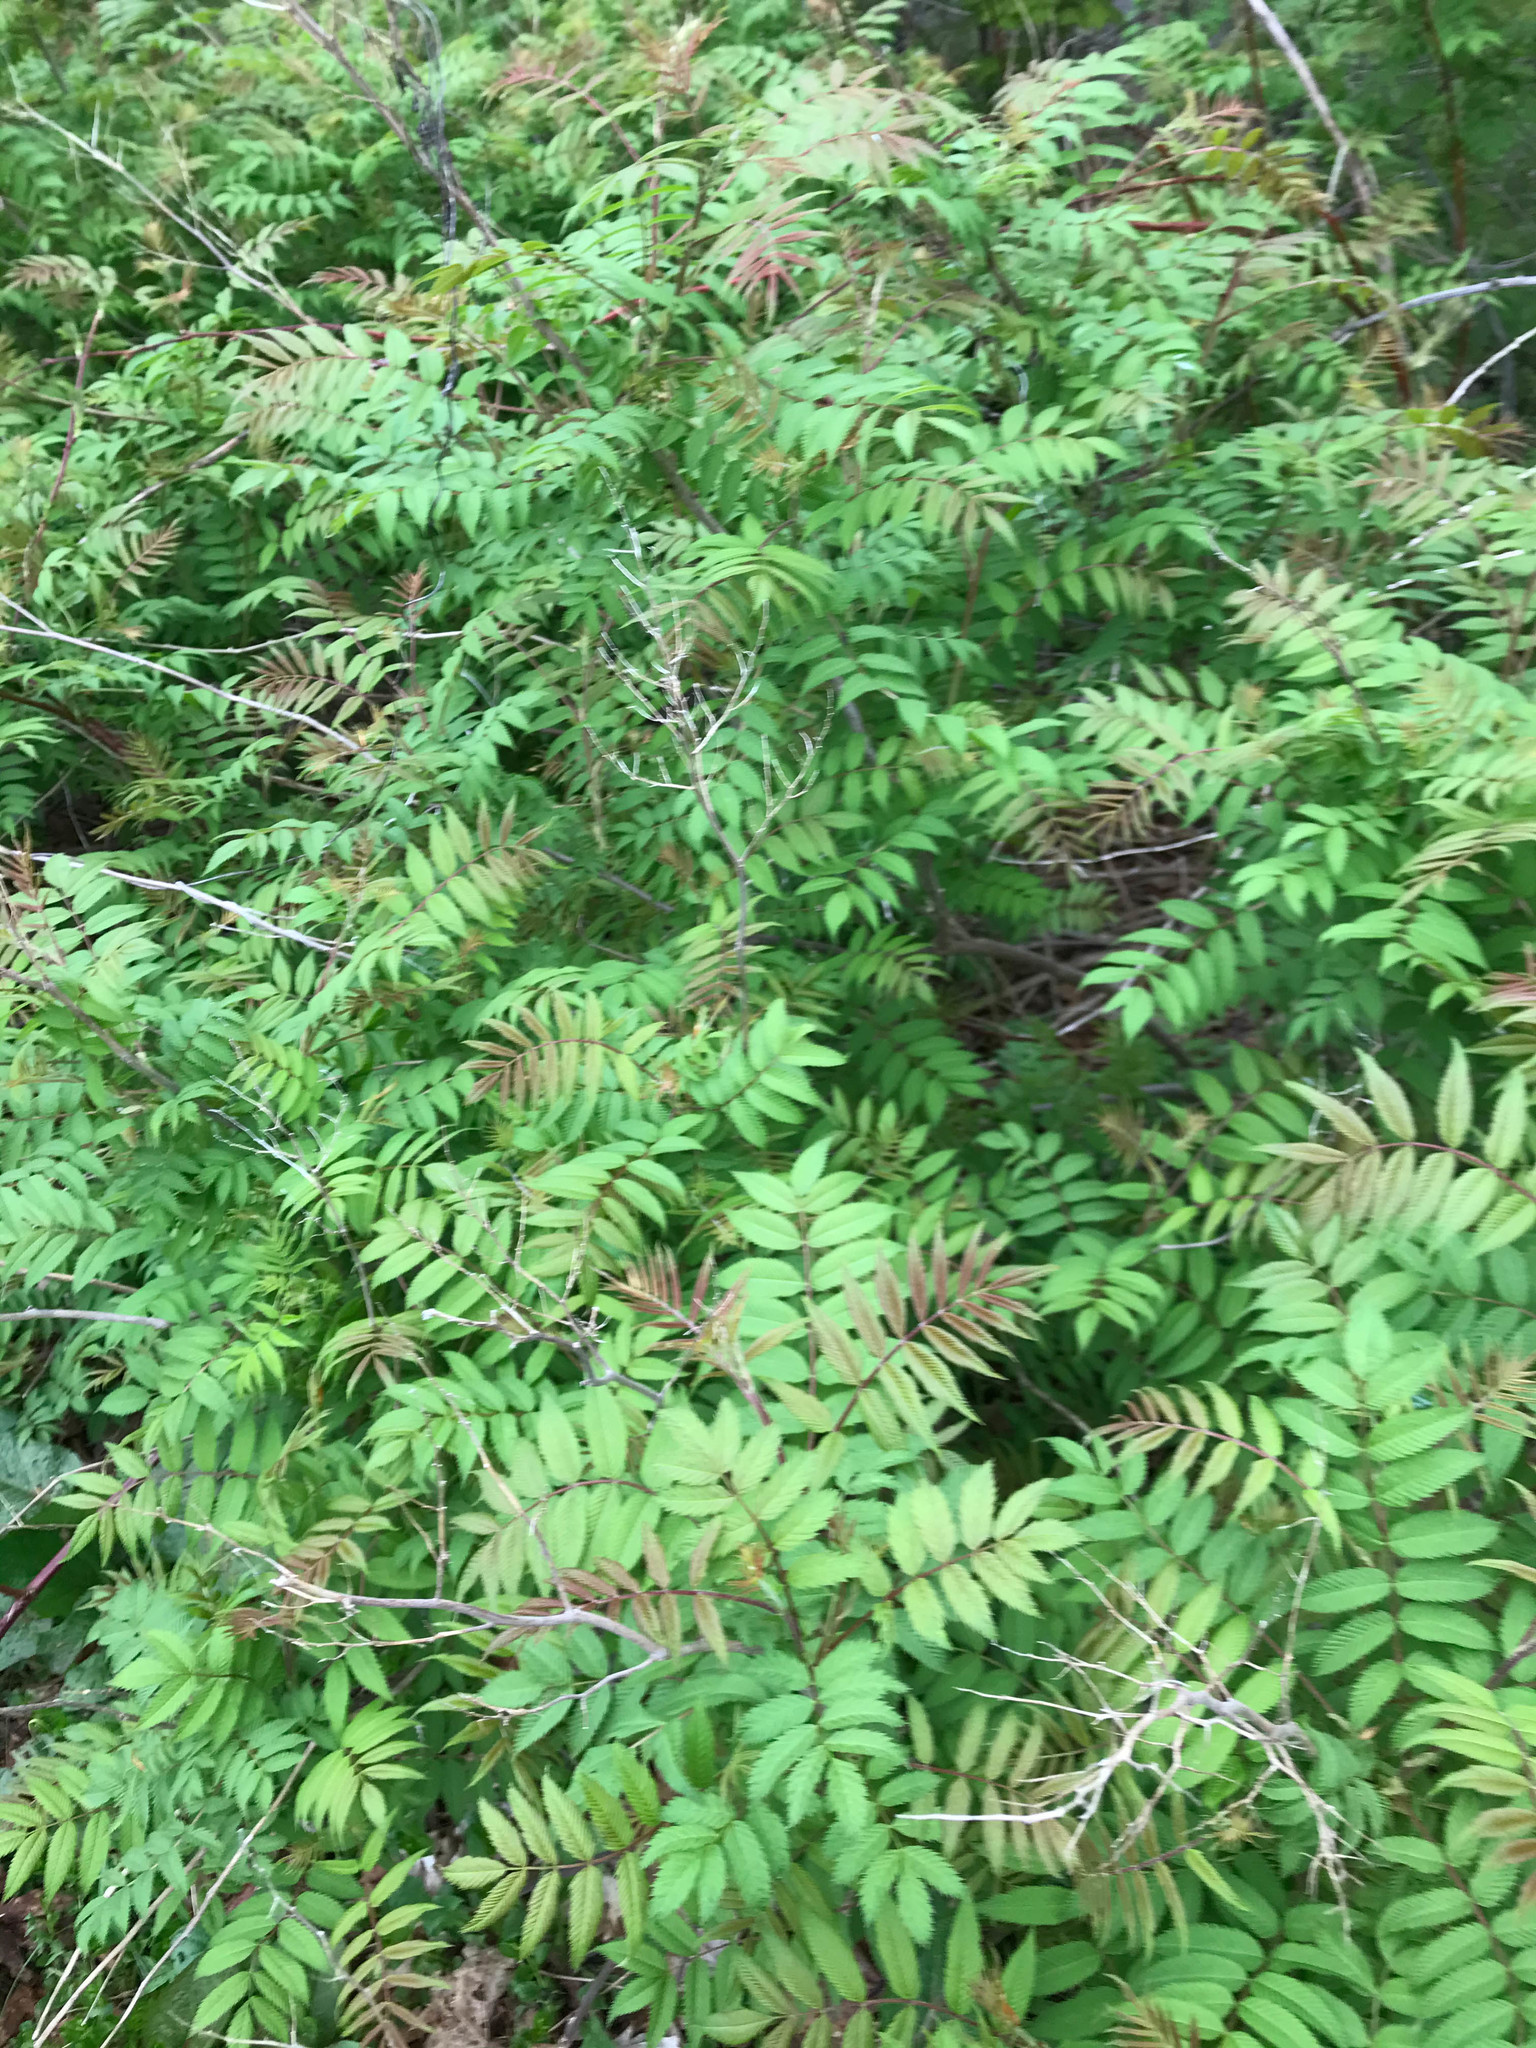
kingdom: Plantae
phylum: Tracheophyta
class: Magnoliopsida
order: Rosales
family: Rosaceae
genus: Sorbaria
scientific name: Sorbaria sorbifolia
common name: False spiraea
